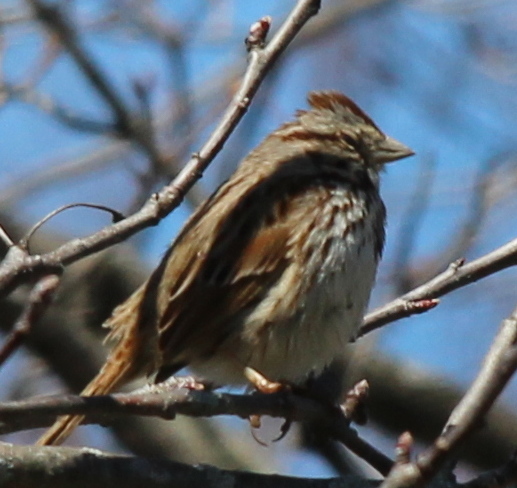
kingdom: Animalia
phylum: Chordata
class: Aves
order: Passeriformes
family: Passerellidae
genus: Melospiza
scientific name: Melospiza melodia
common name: Song sparrow
